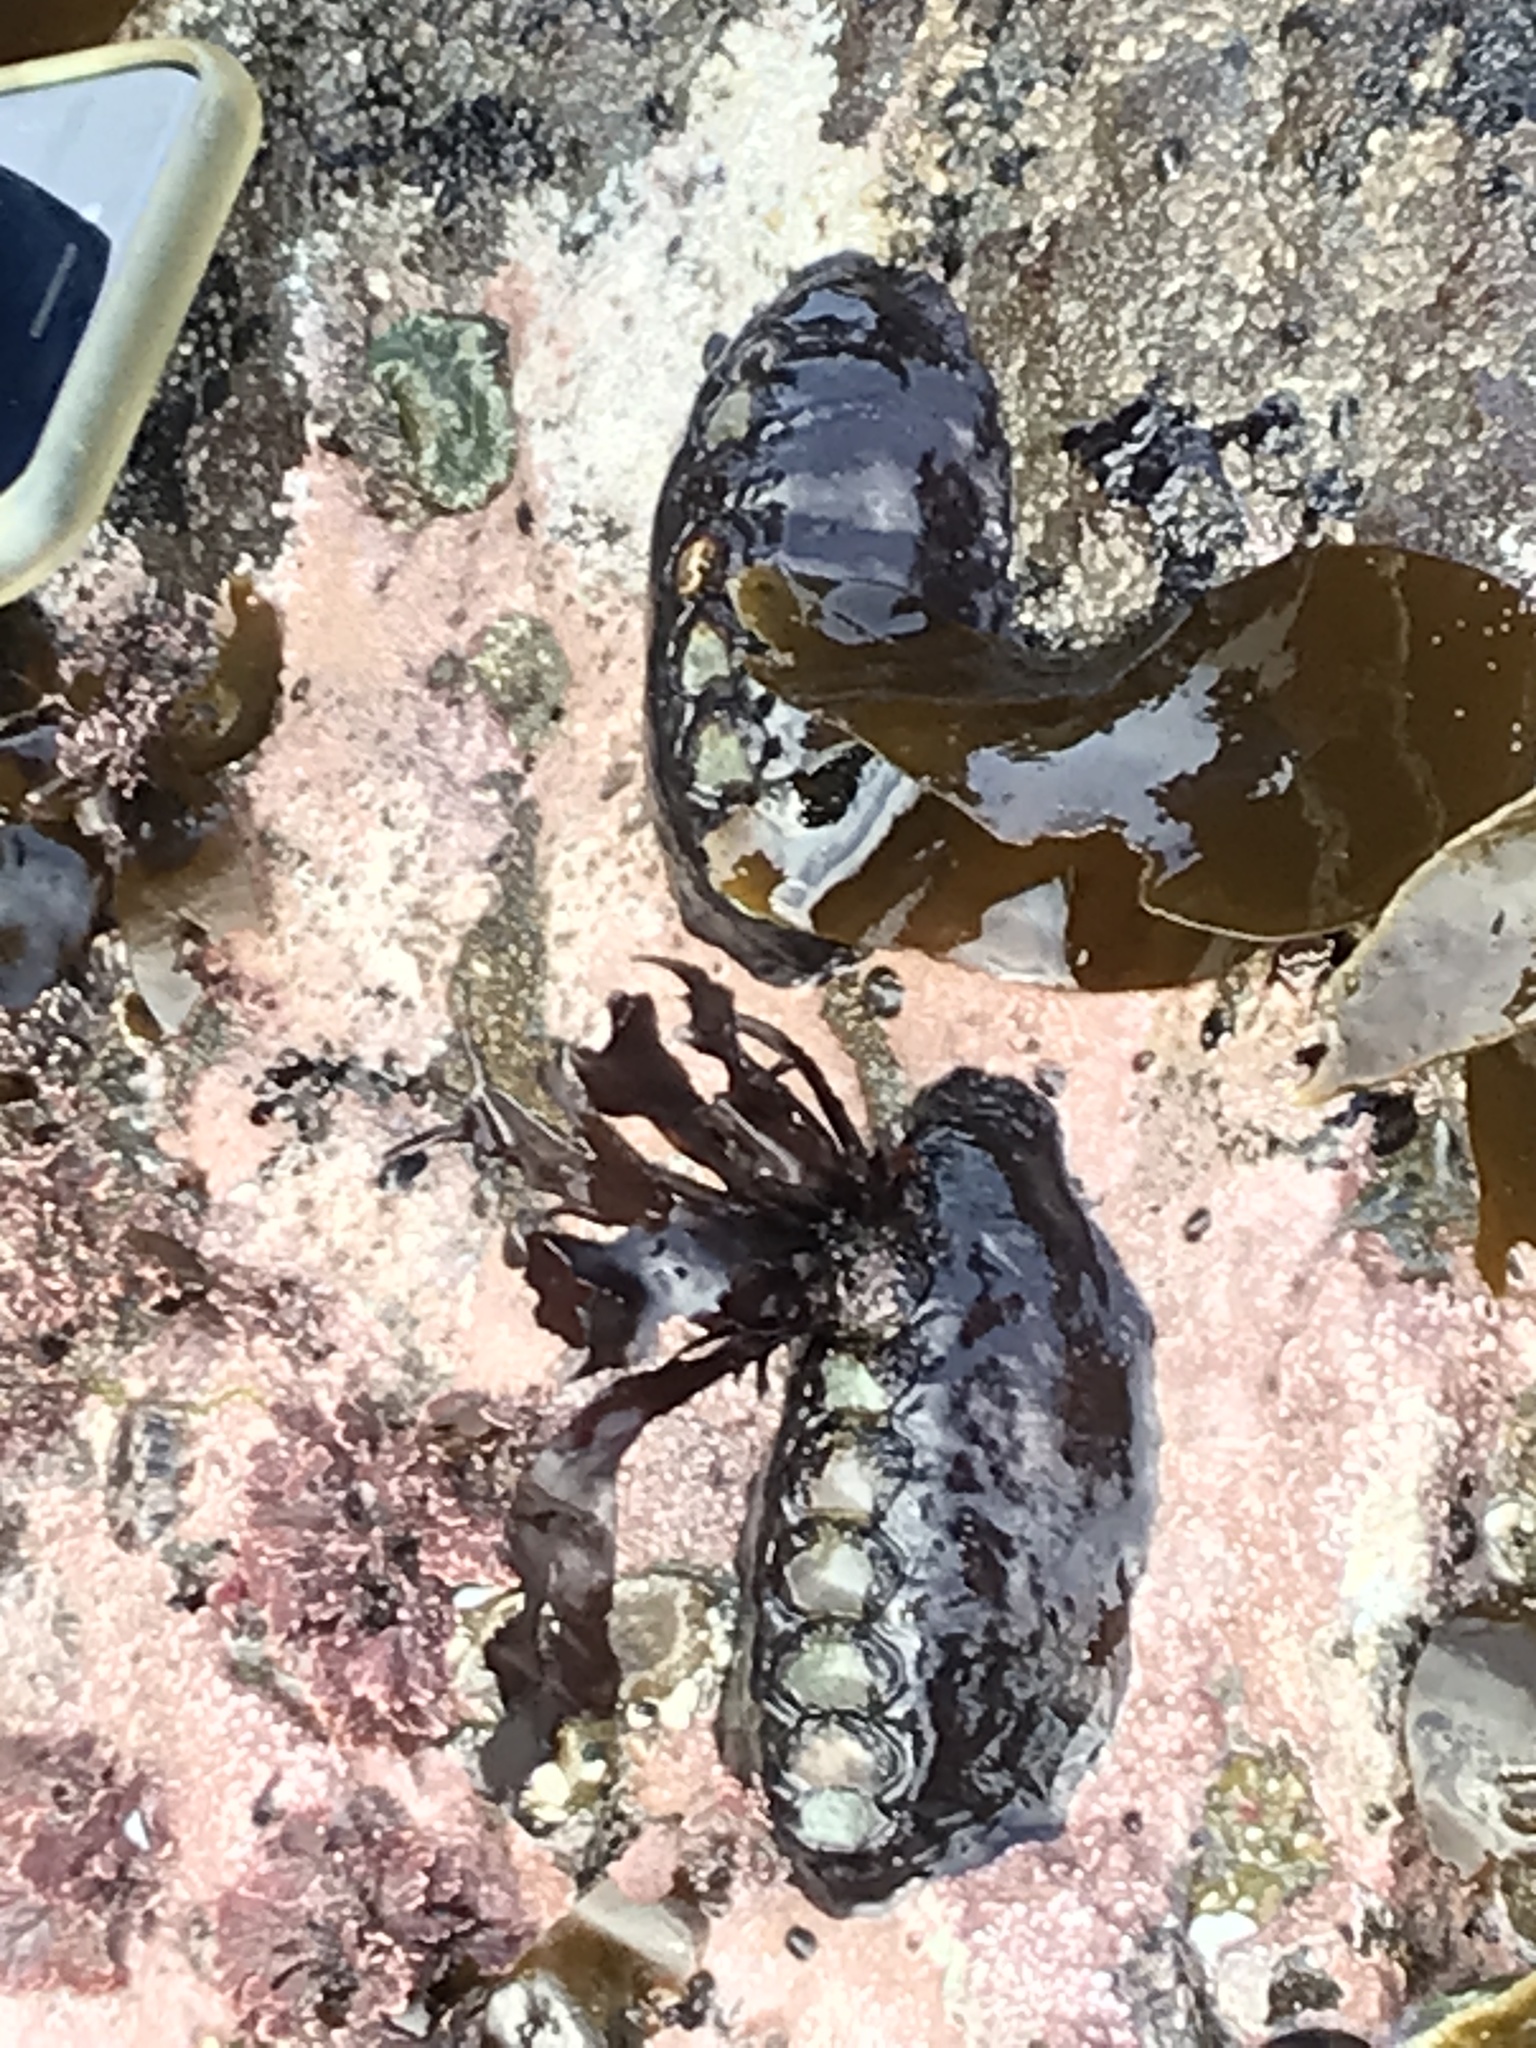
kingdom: Animalia
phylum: Mollusca
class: Polyplacophora
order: Chitonida
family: Mopaliidae
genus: Katharina
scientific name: Katharina tunicata
